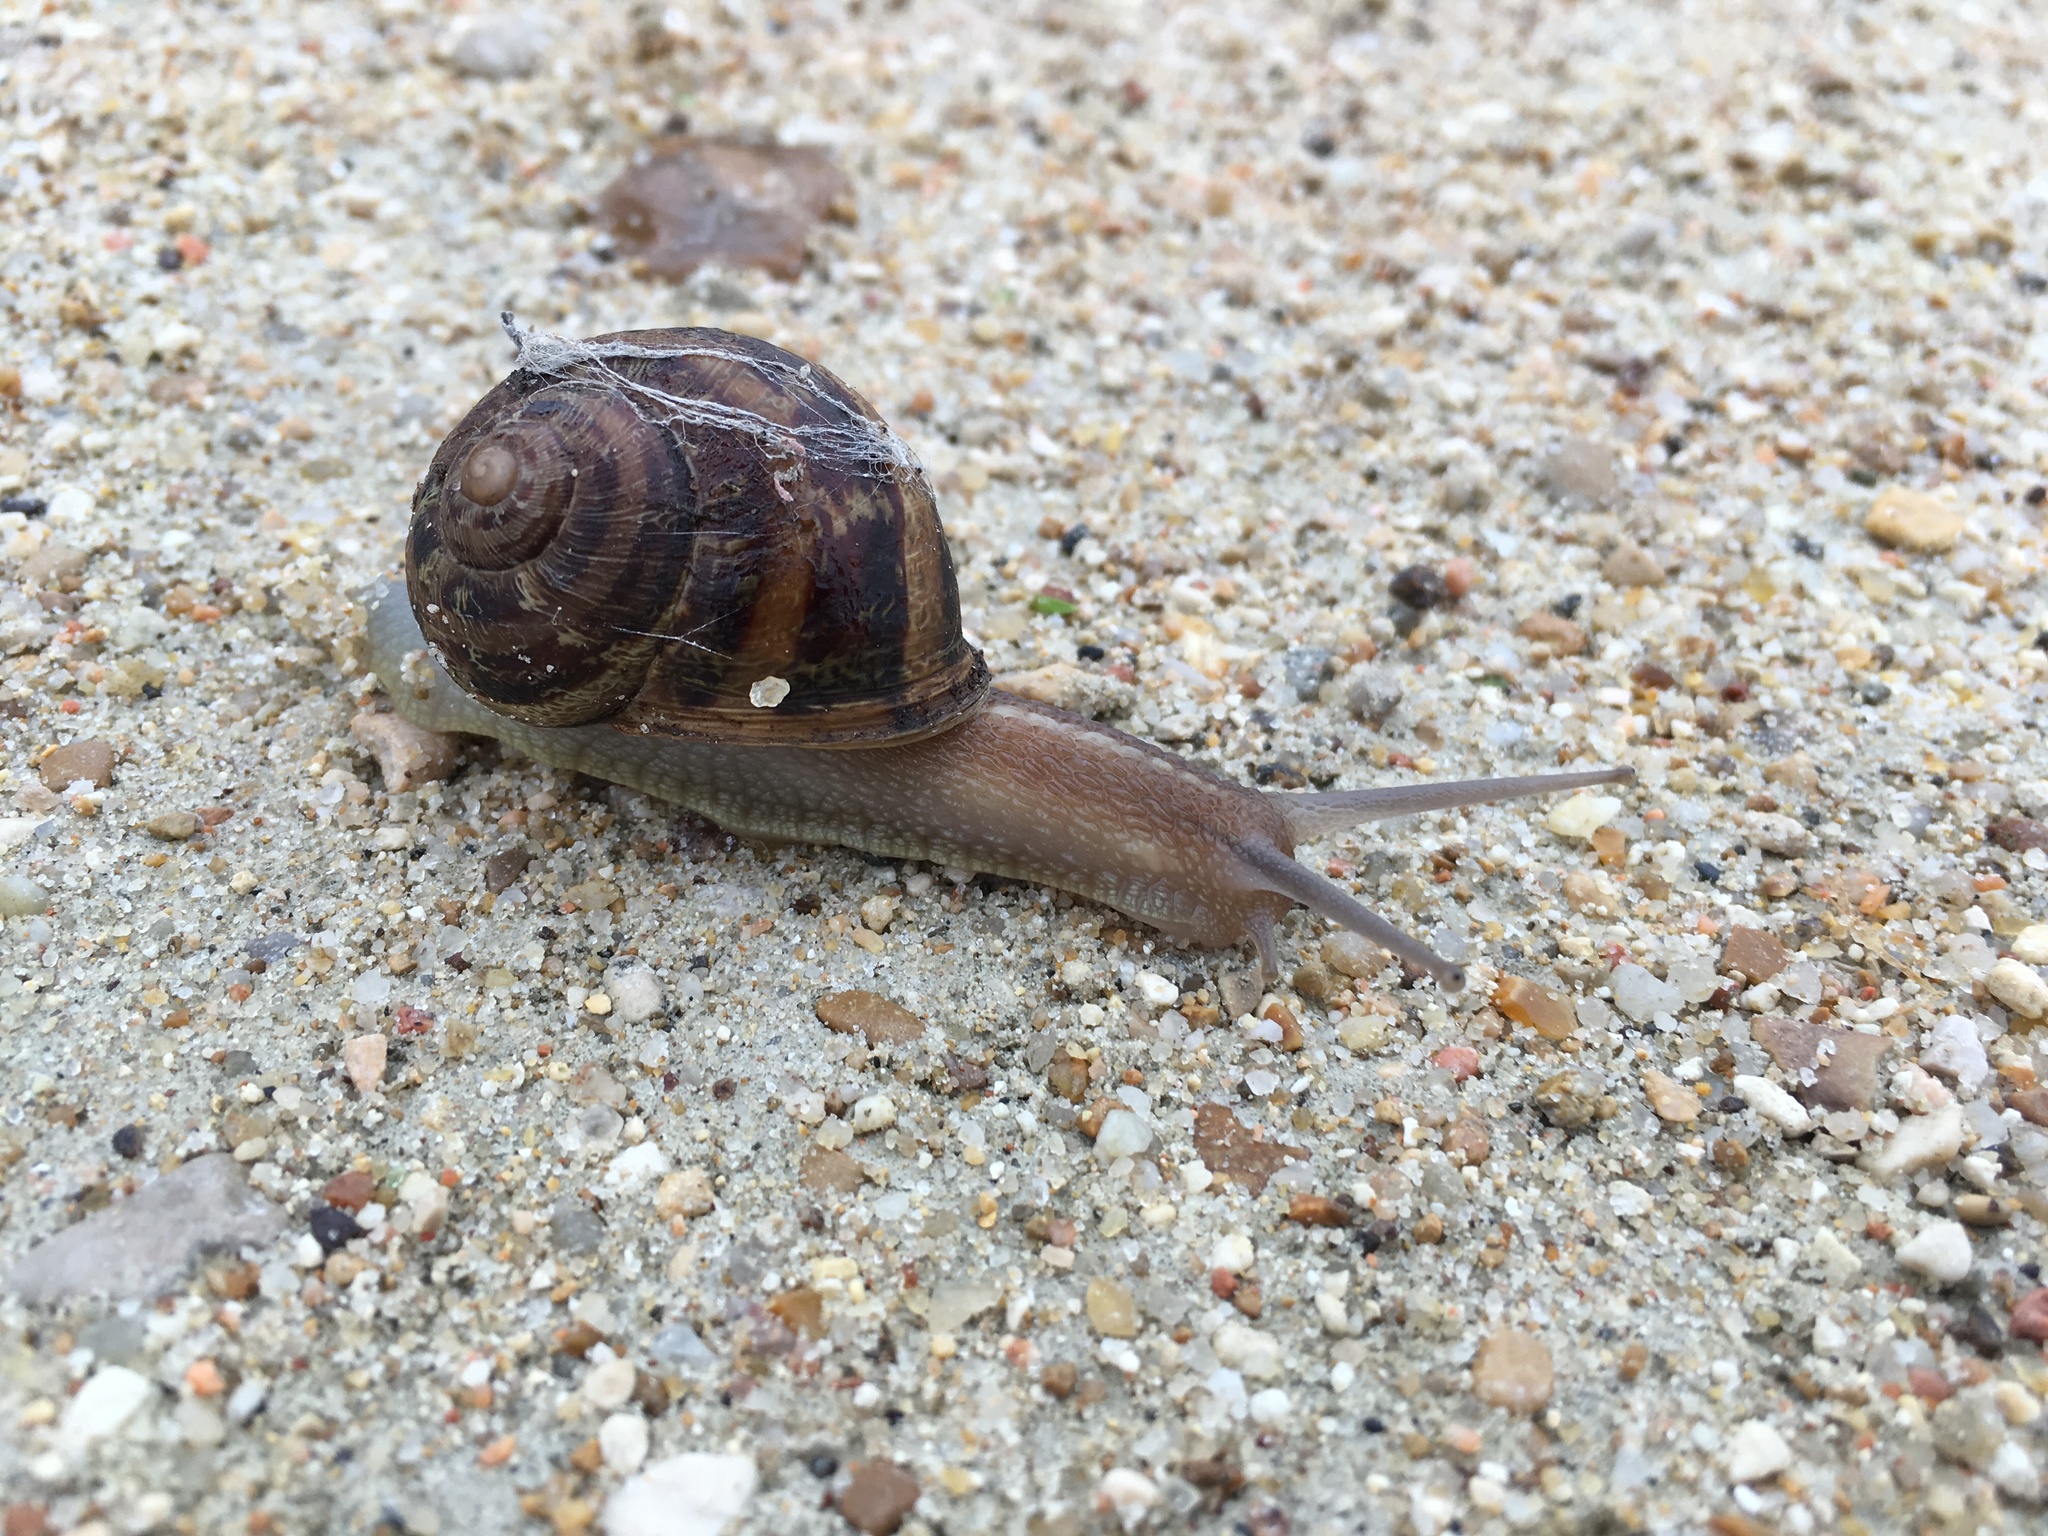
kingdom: Animalia
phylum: Mollusca
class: Gastropoda
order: Stylommatophora
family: Helicidae
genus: Cornu
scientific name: Cornu aspersum
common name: Brown garden snail
